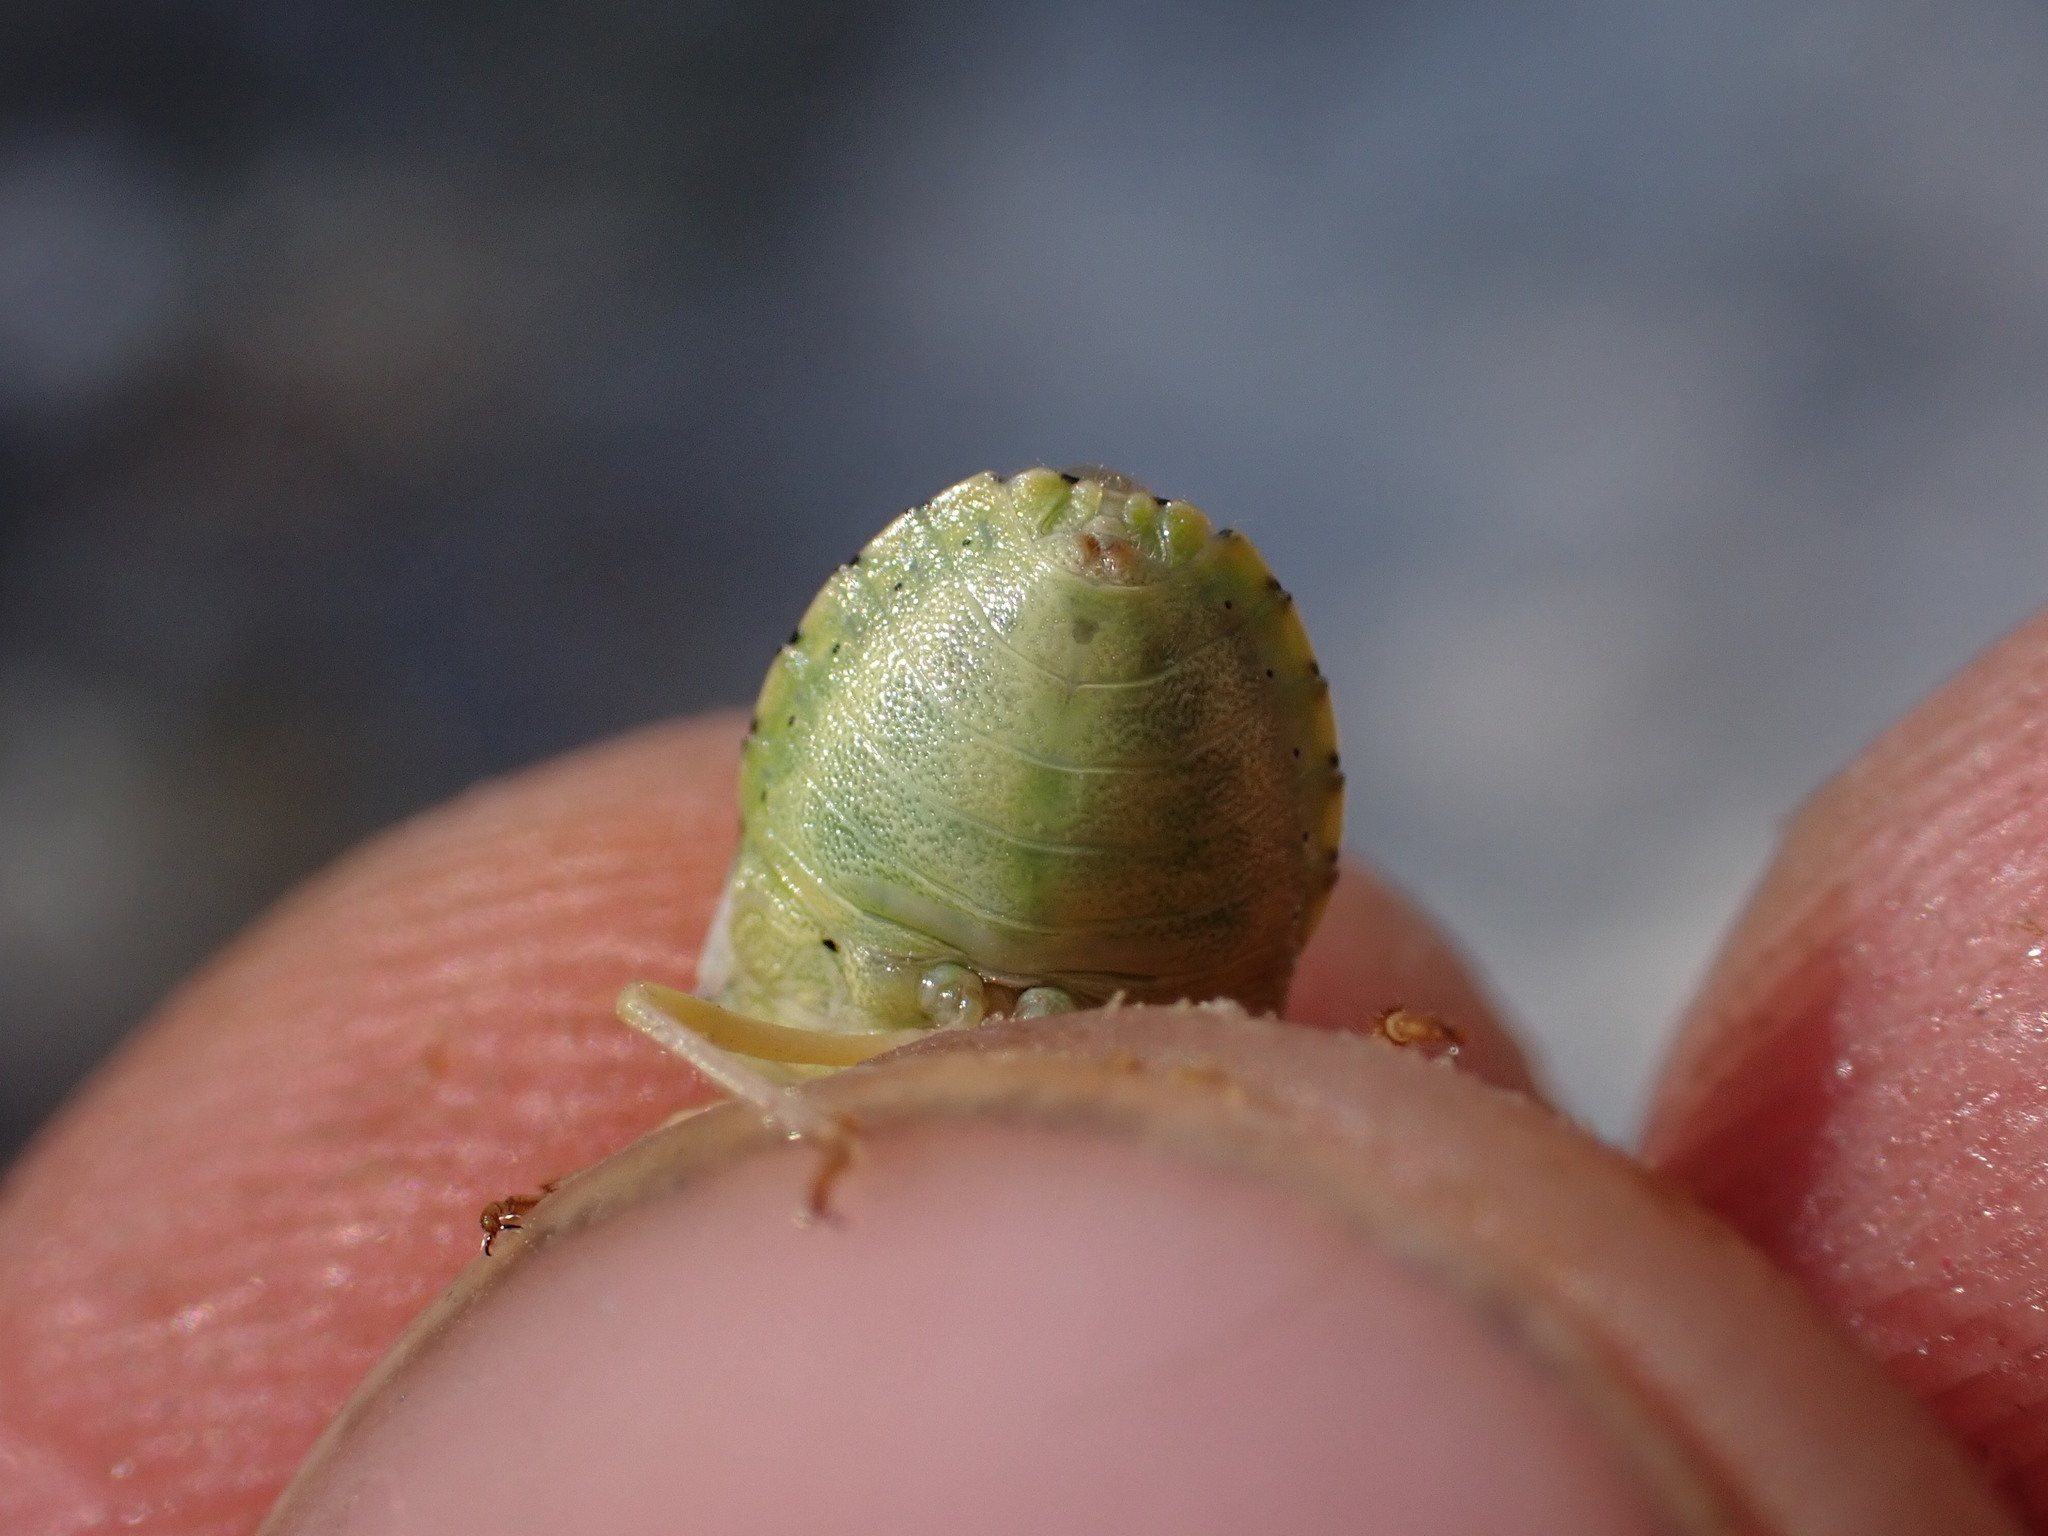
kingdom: Animalia
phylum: Arthropoda
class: Insecta
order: Hemiptera
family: Pentatomidae
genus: Antheminia
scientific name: Antheminia lunulata
